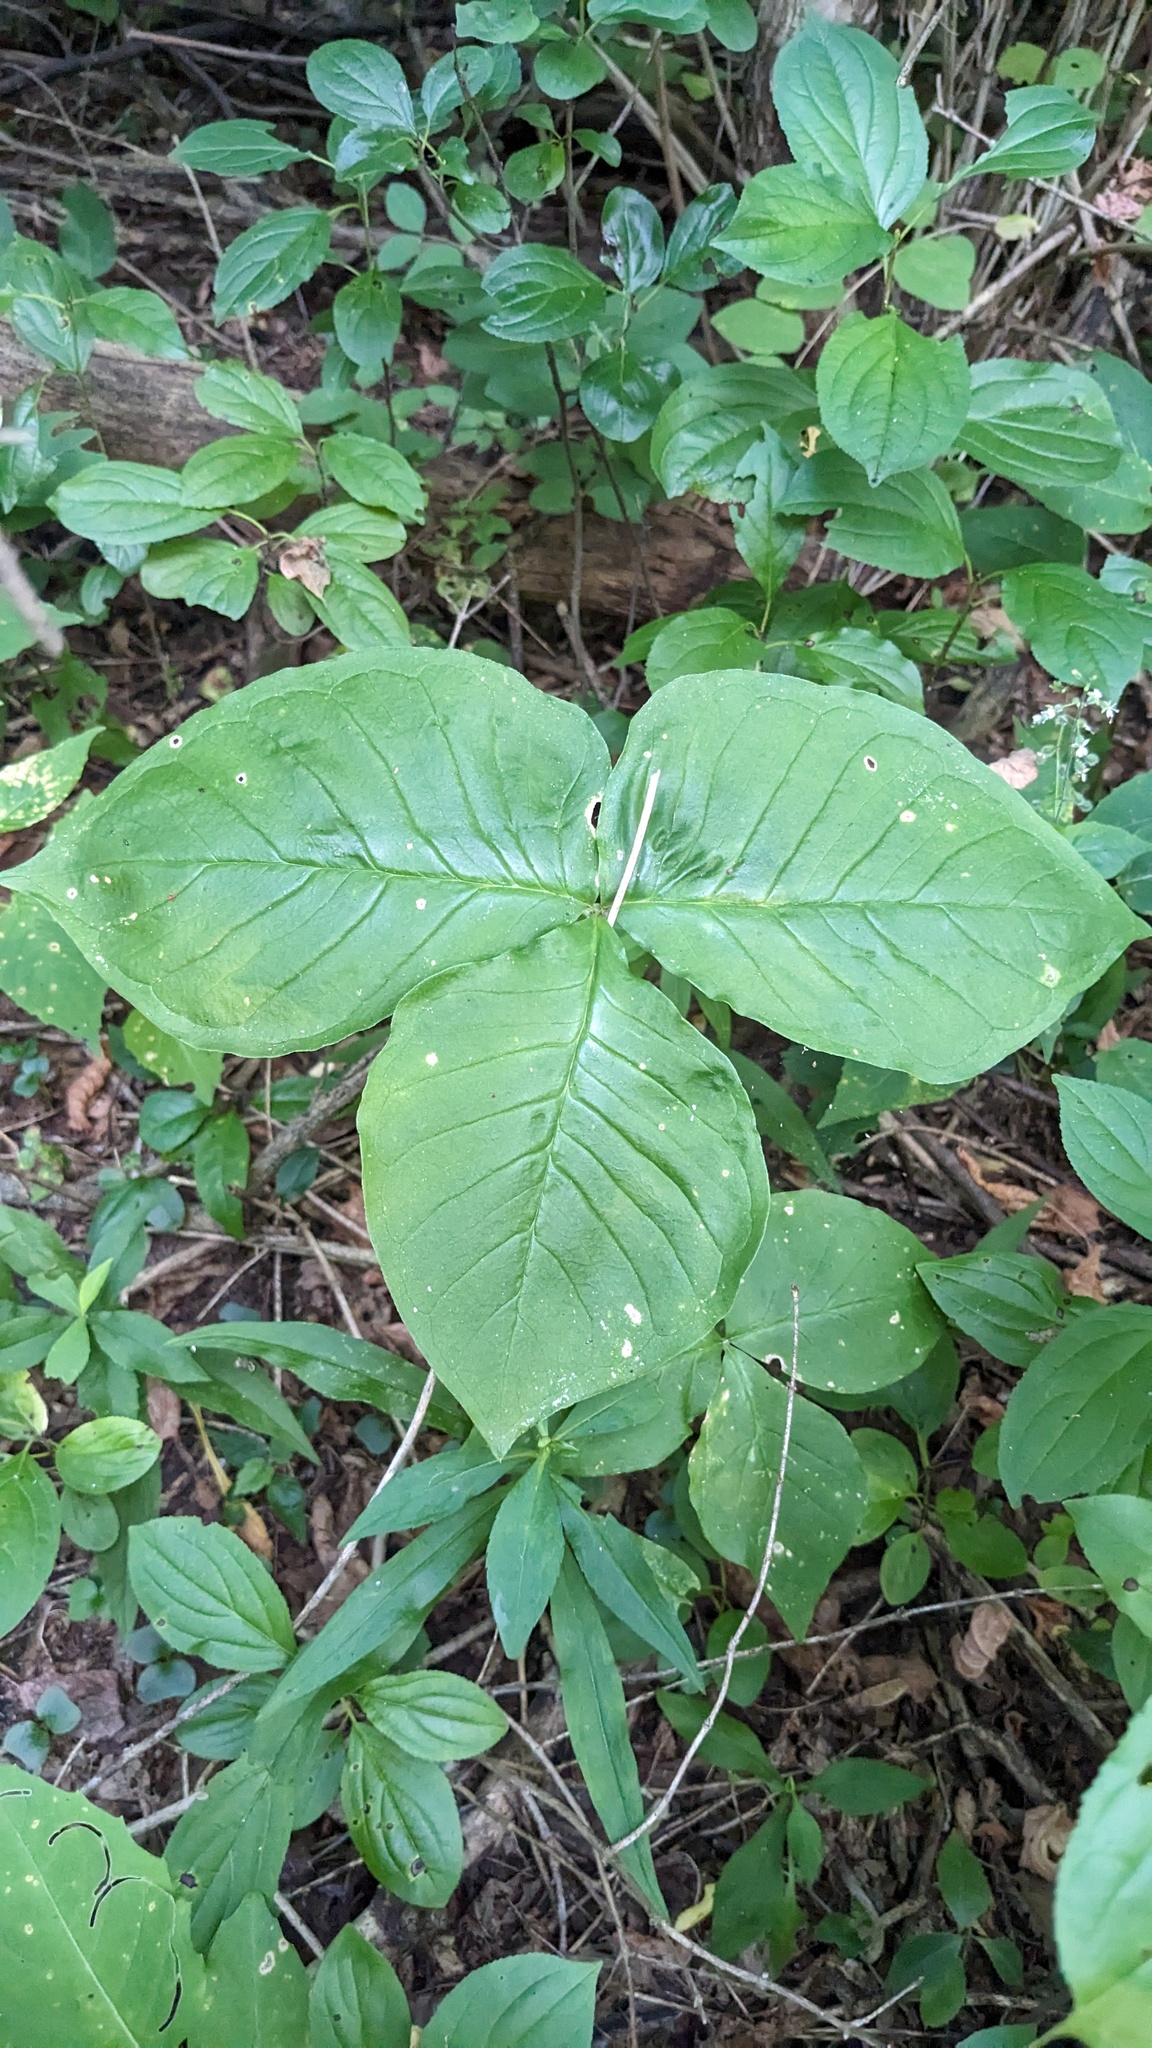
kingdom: Plantae
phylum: Tracheophyta
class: Liliopsida
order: Alismatales
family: Araceae
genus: Arisaema
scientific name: Arisaema triphyllum
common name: Jack-in-the-pulpit
